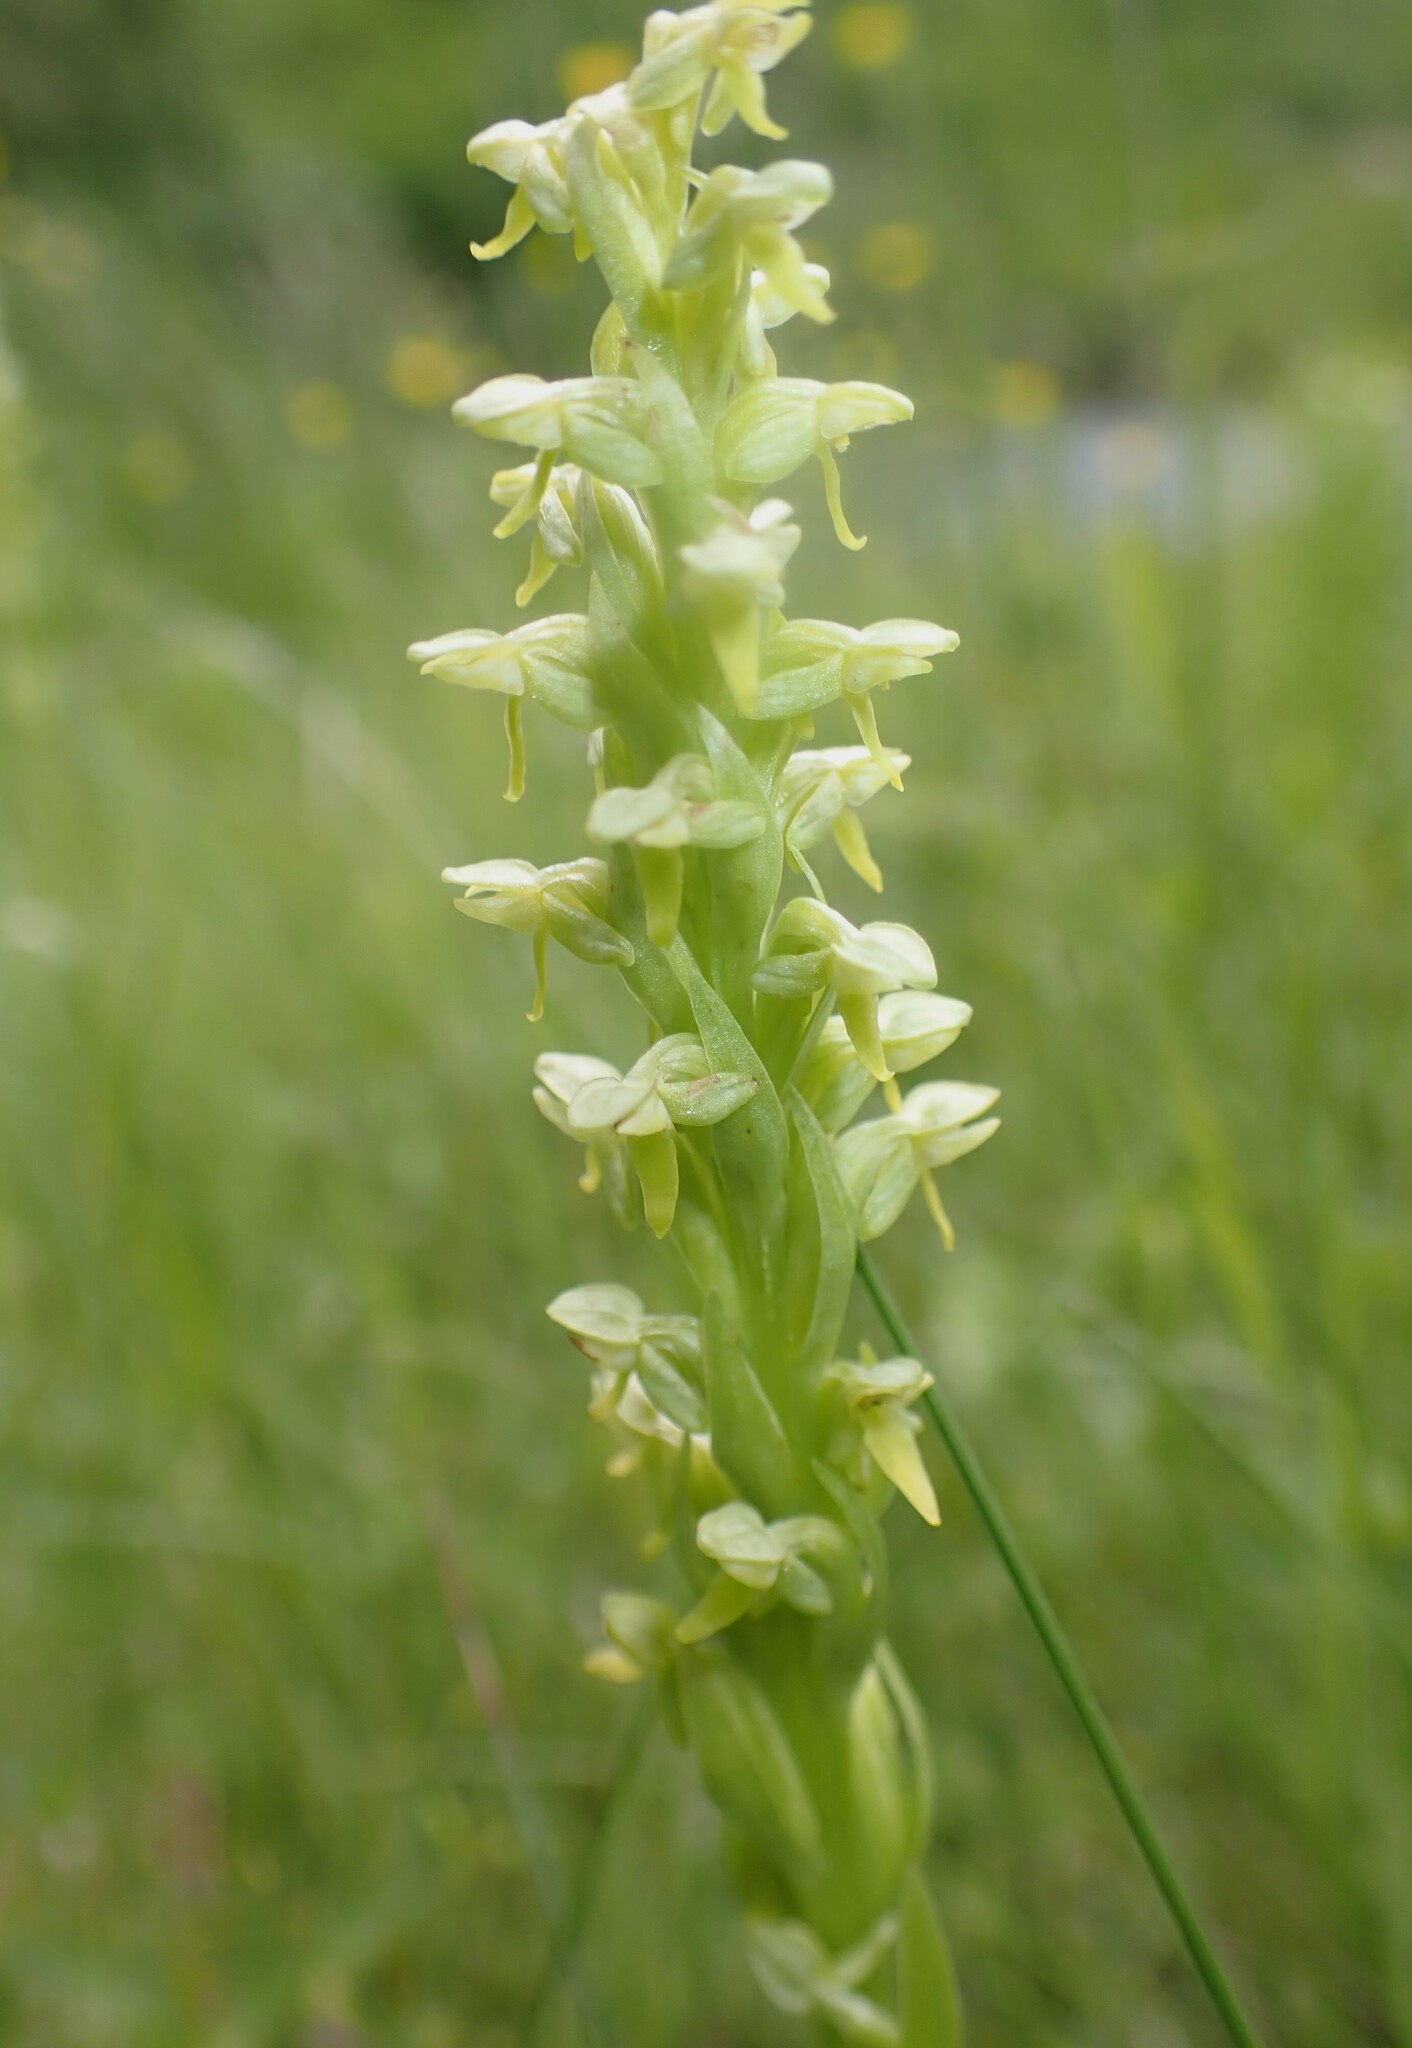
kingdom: Plantae
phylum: Tracheophyta
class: Liliopsida
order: Asparagales
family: Orchidaceae
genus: Platanthera
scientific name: Platanthera aquilonis
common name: Northern green orchid
